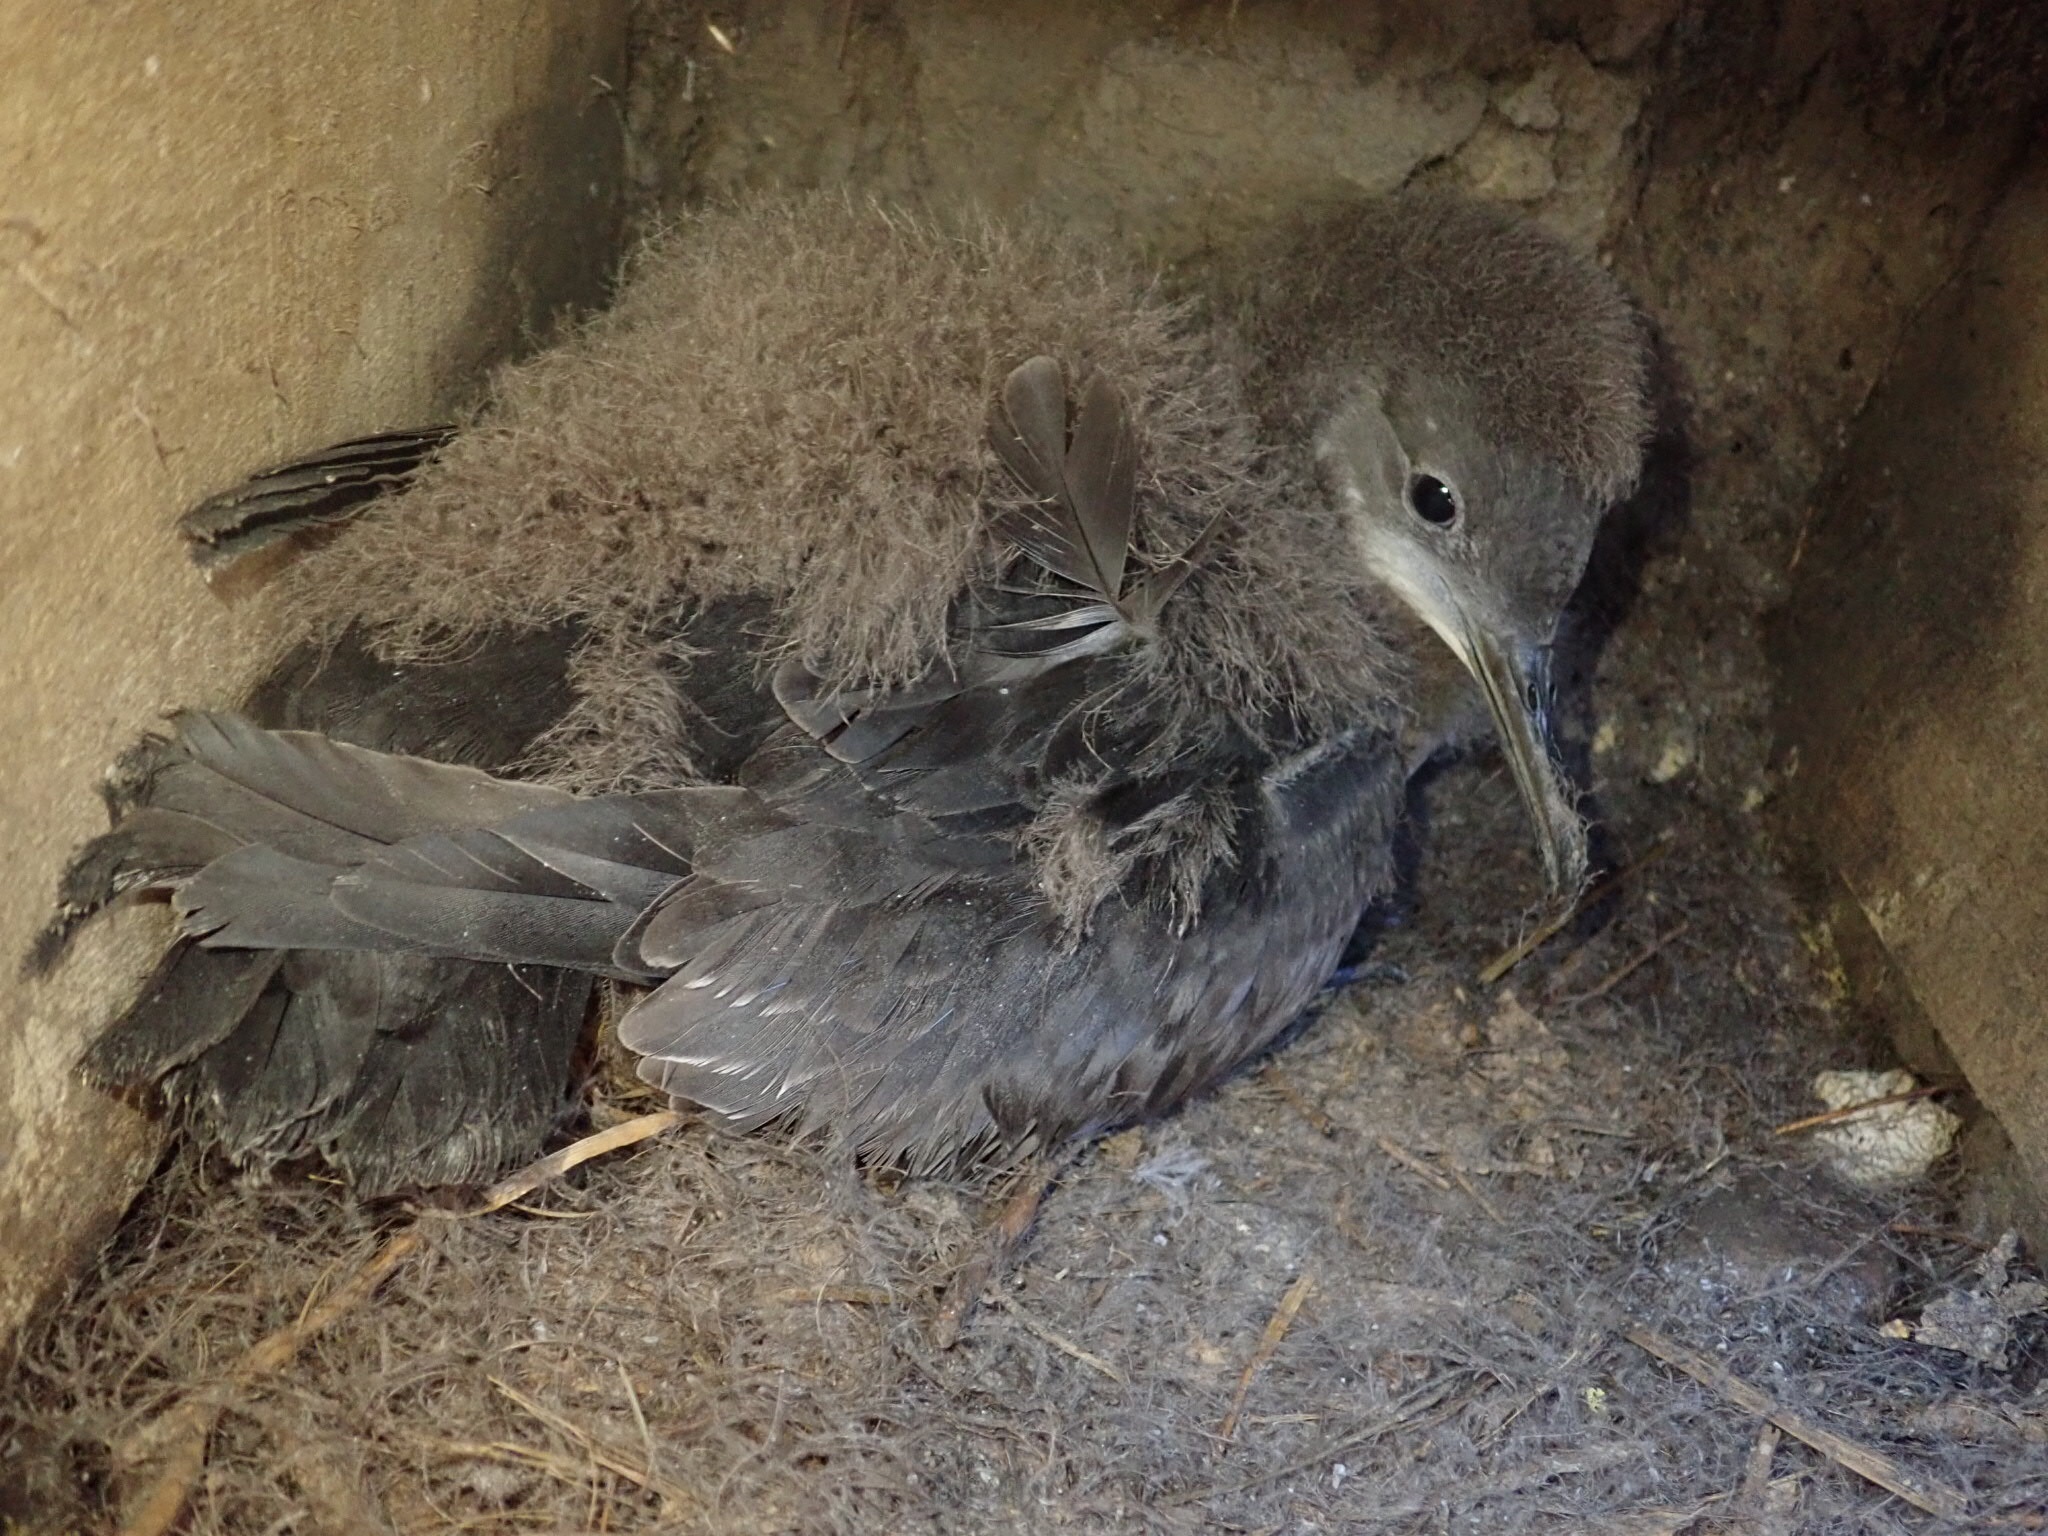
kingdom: Animalia
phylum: Chordata
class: Aves
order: Procellariiformes
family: Procellariidae
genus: Puffinus
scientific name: Puffinus gavia
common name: Fluttering shearwater
